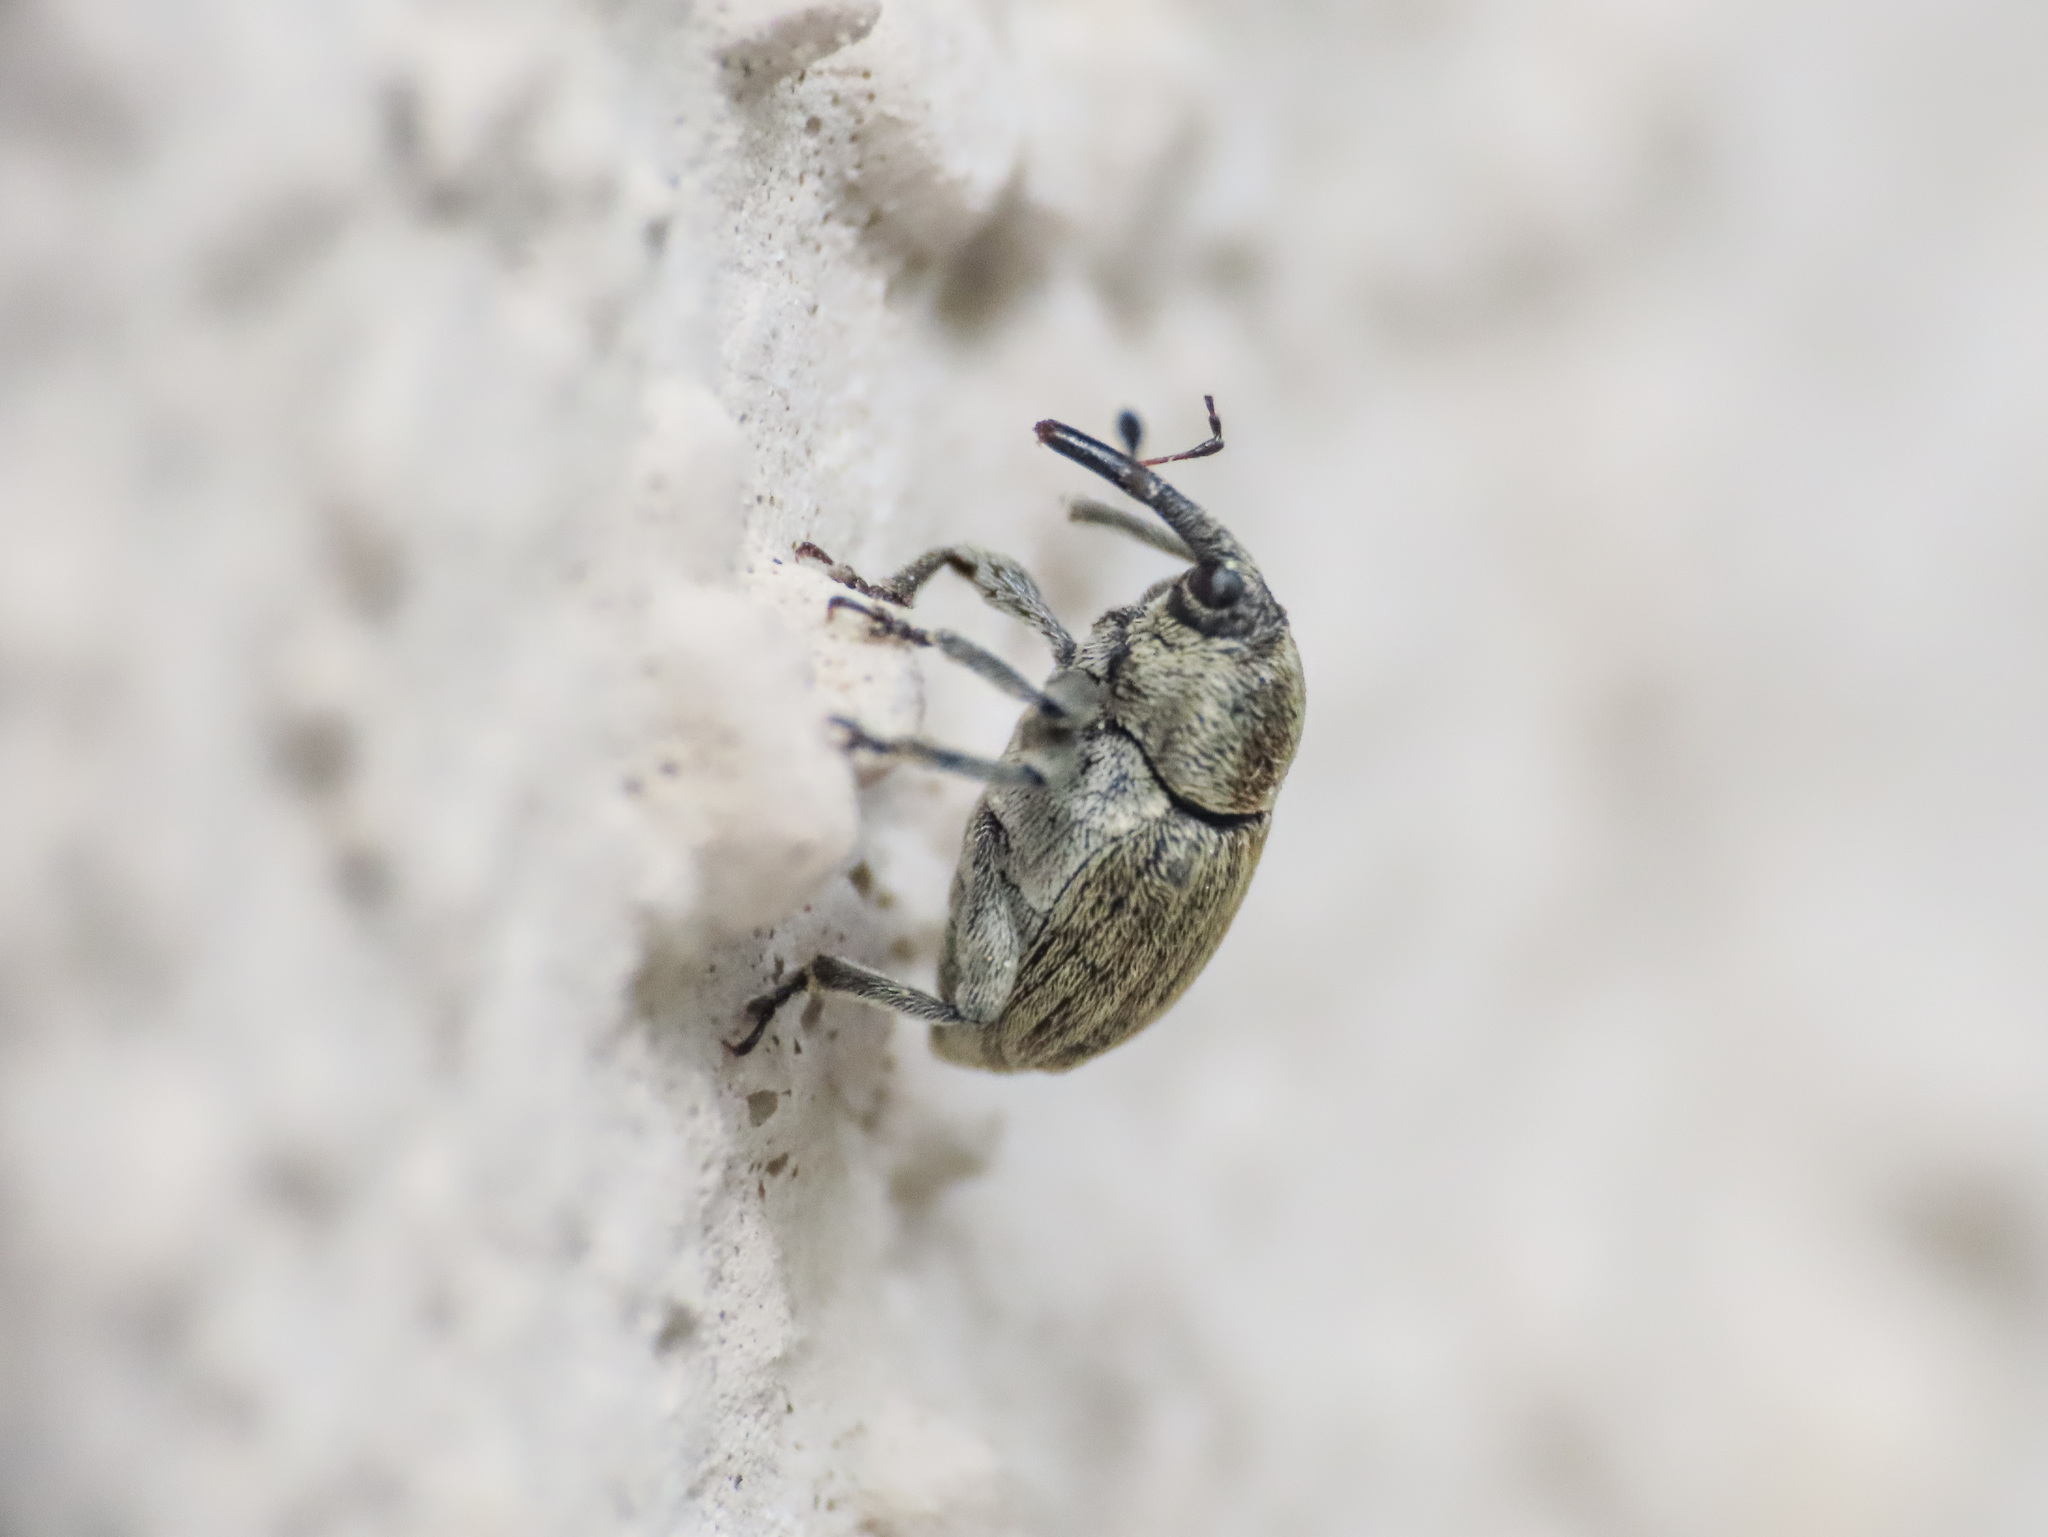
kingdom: Animalia
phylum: Arthropoda
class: Insecta
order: Coleoptera
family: Curculionidae
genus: Sibinia
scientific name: Sibinia pellucens
